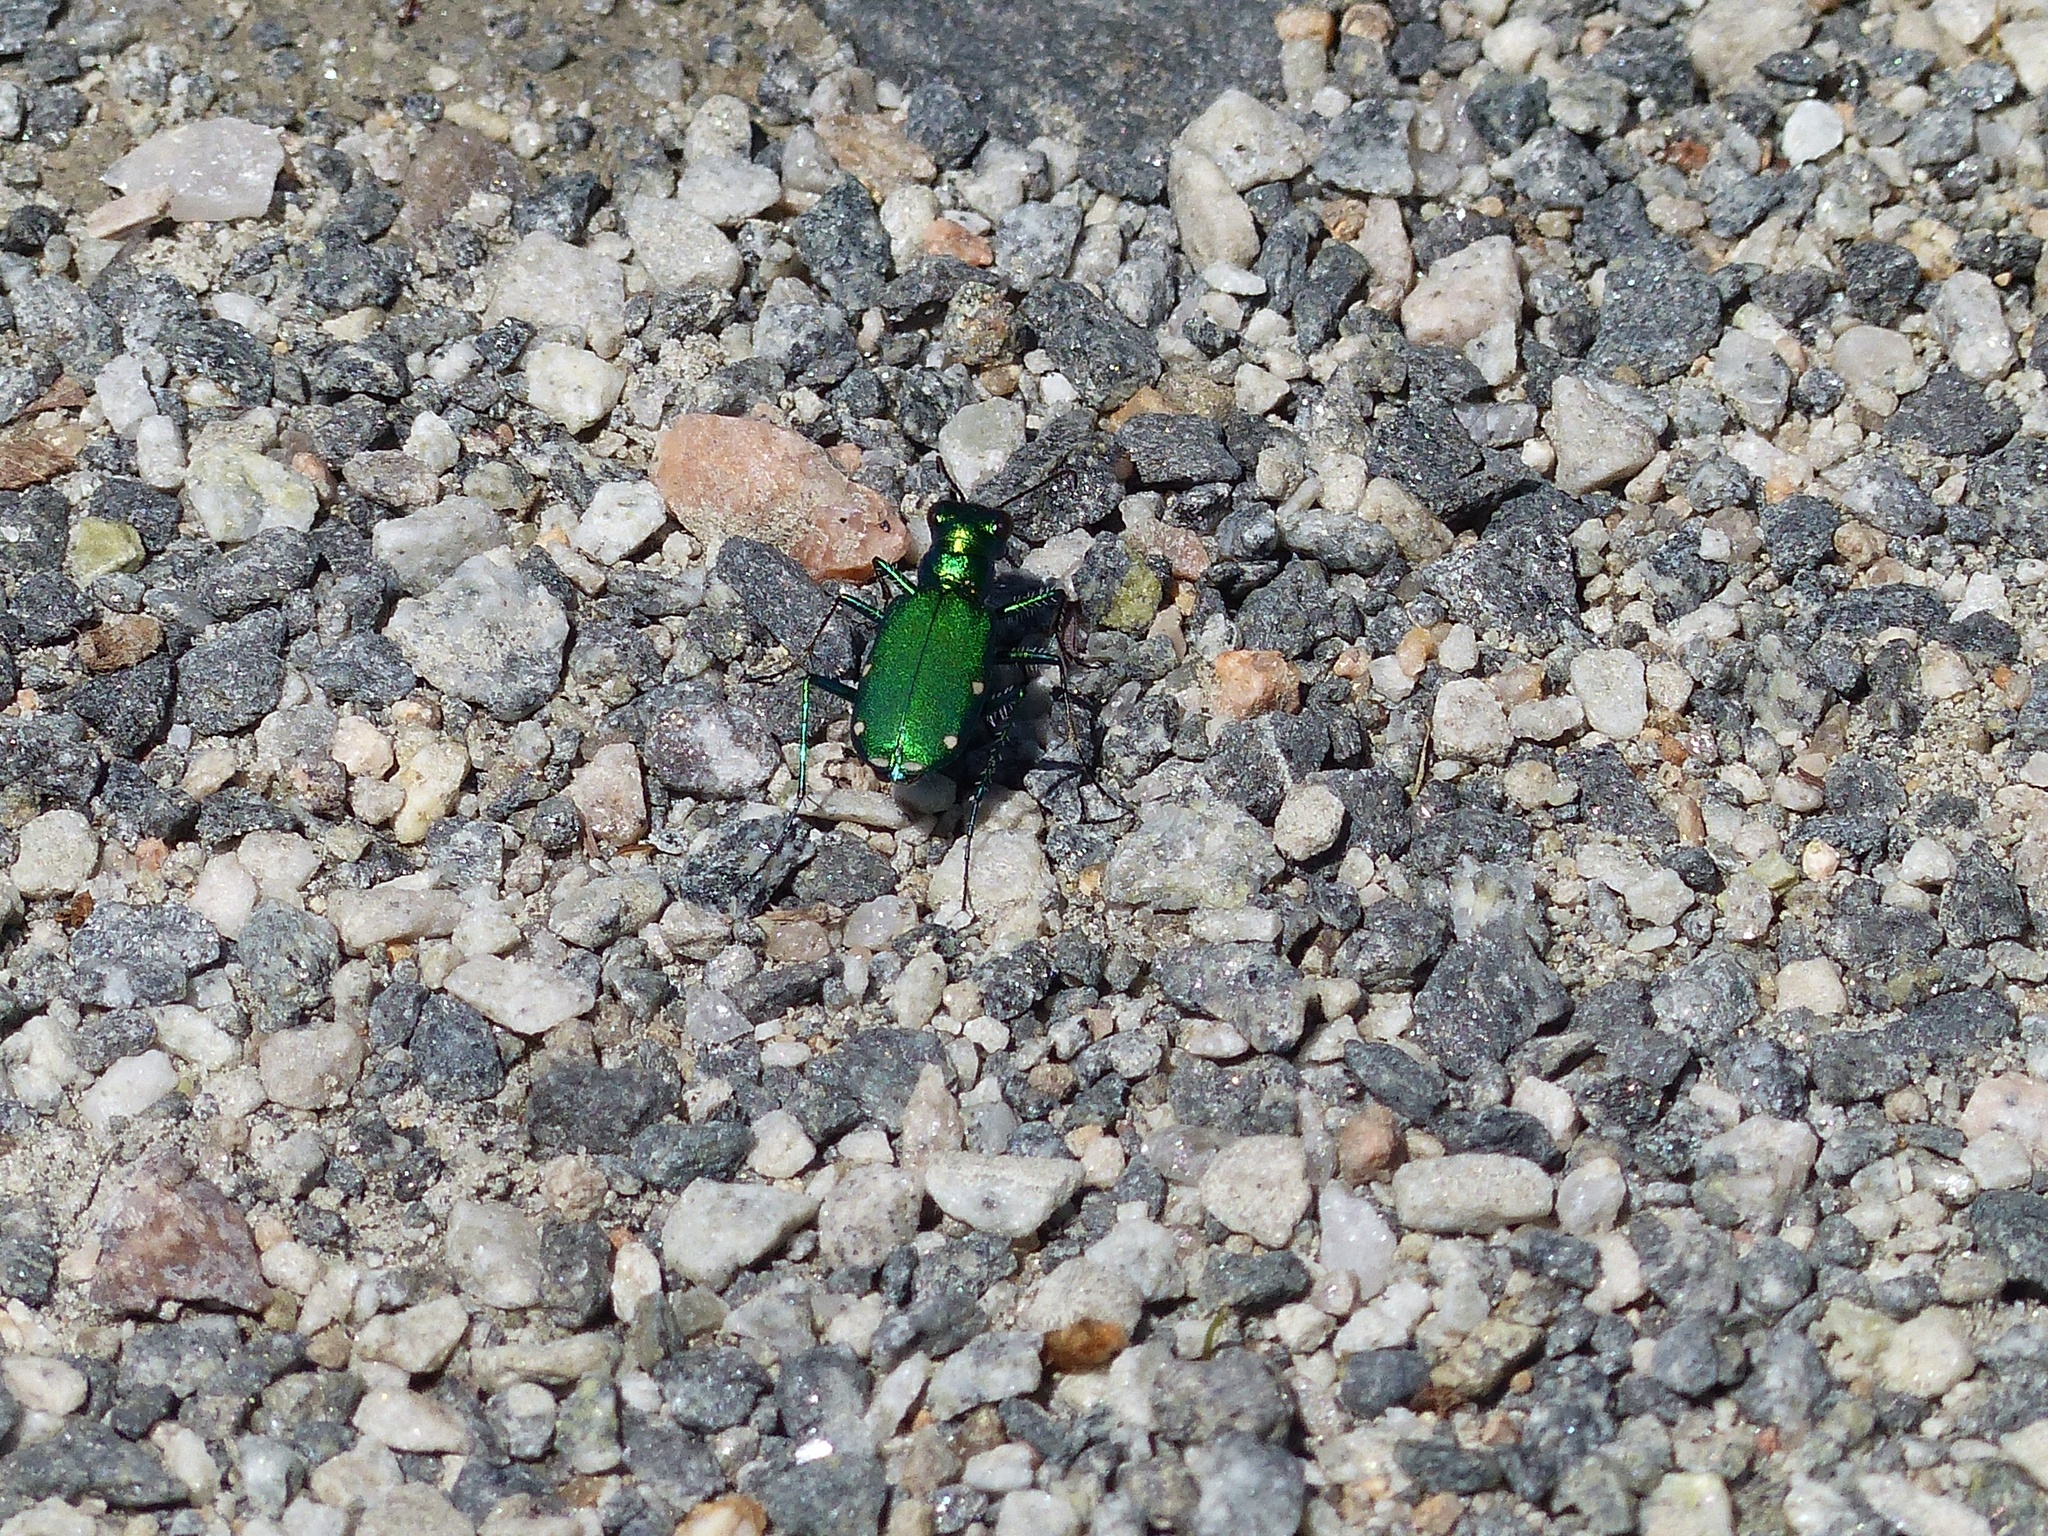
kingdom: Animalia
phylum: Arthropoda
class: Insecta
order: Coleoptera
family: Carabidae
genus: Cicindela
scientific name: Cicindela sexguttata
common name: Six-spotted tiger beetle
